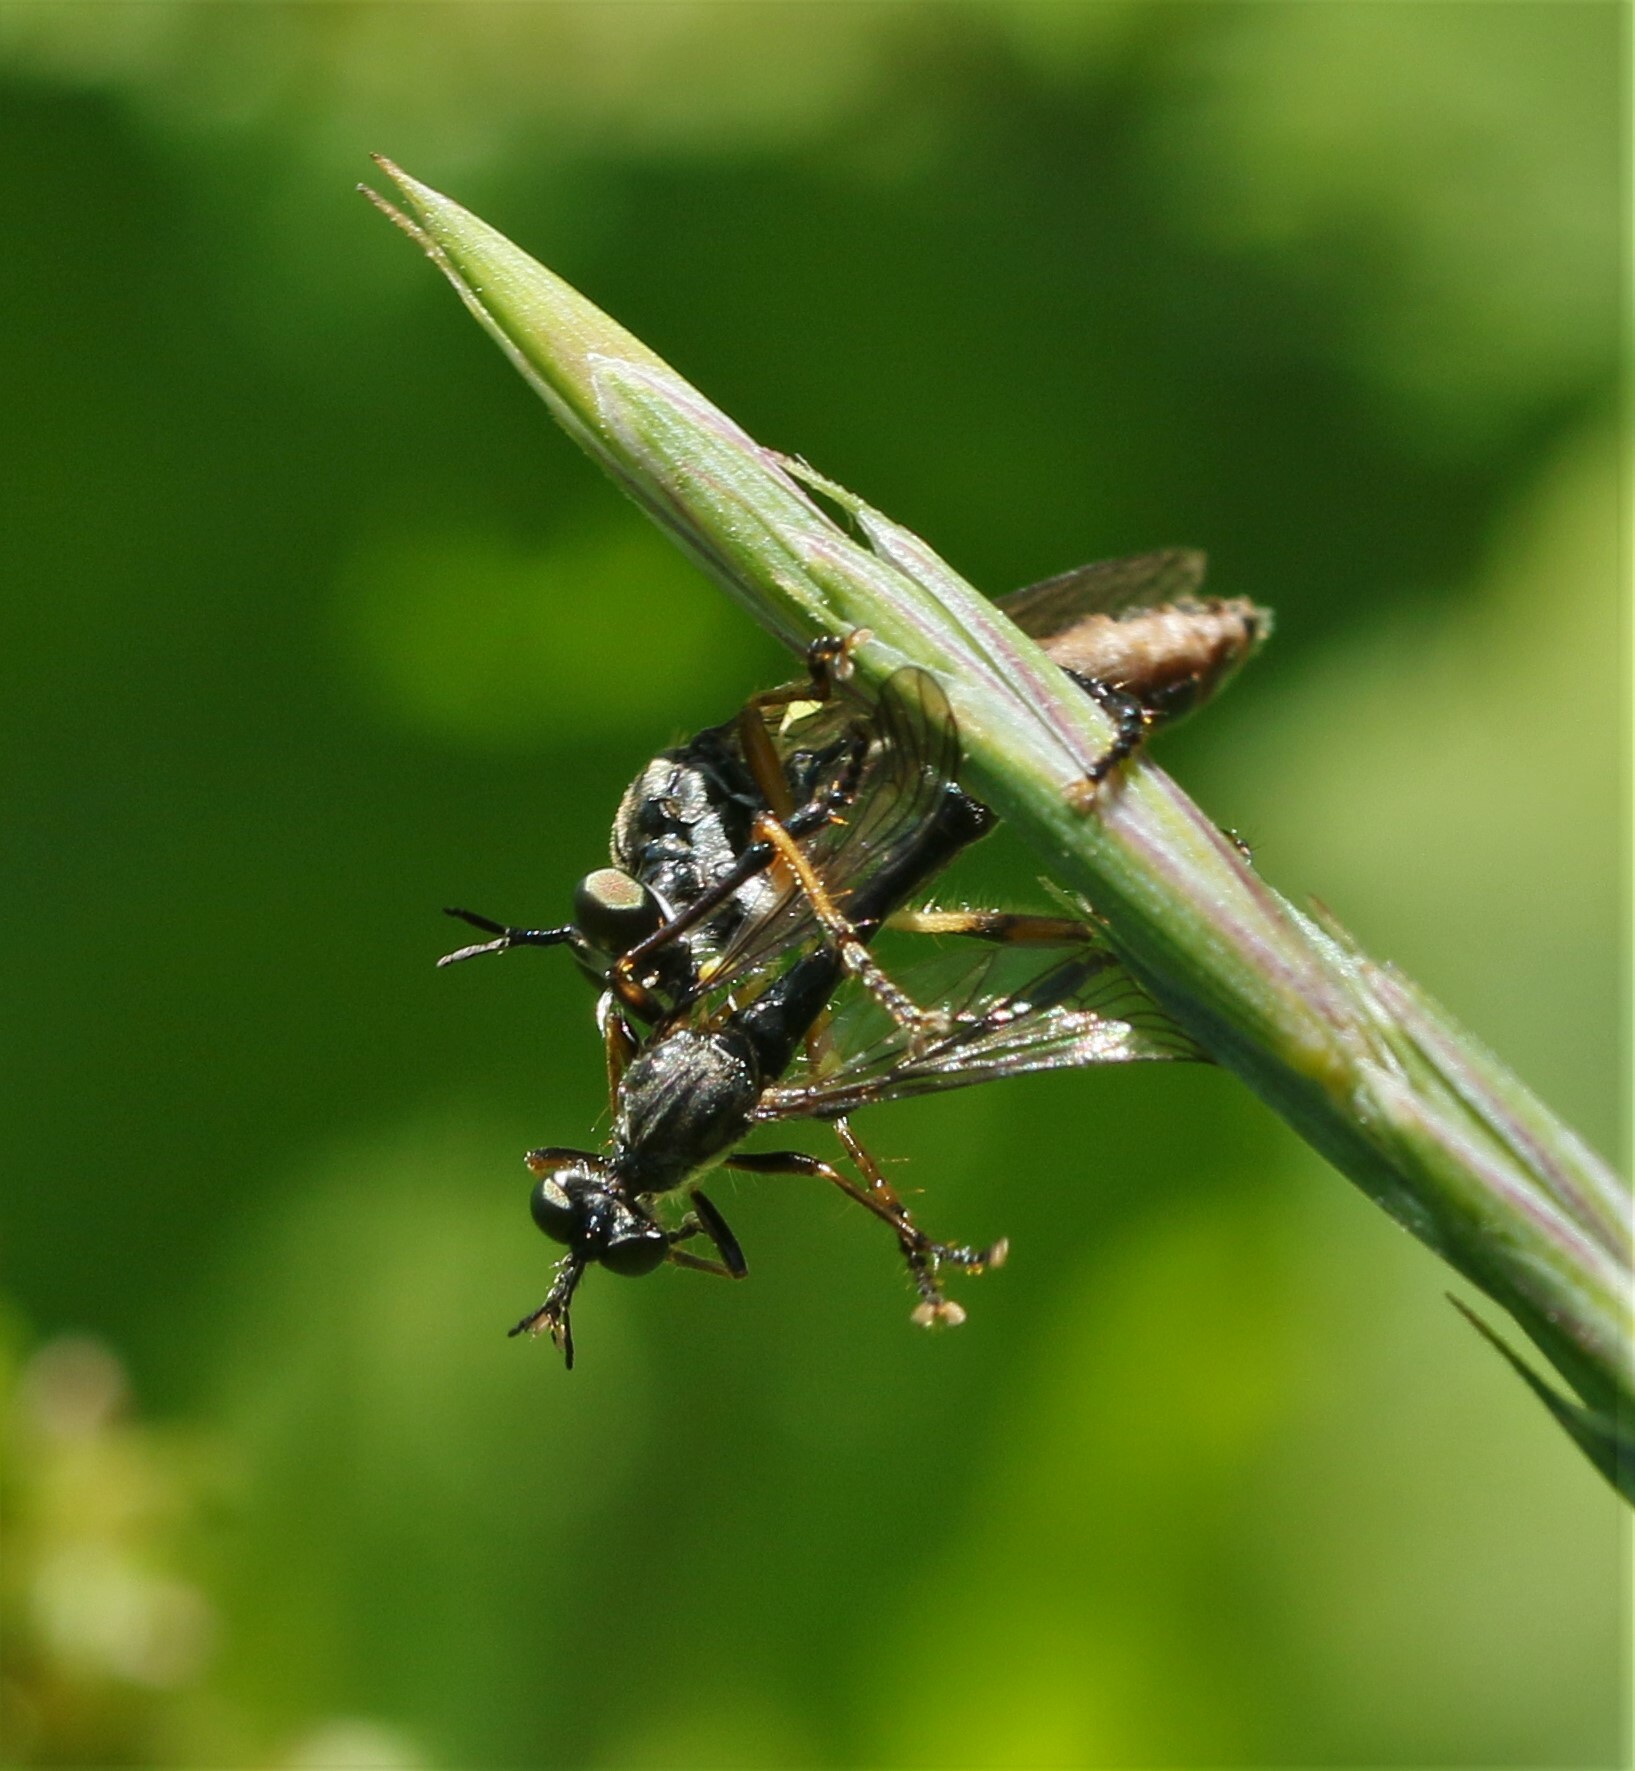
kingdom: Animalia
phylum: Arthropoda
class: Insecta
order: Diptera
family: Asilidae
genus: Dioctria
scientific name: Dioctria hyalipennis
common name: Stripe-legged robberfly
